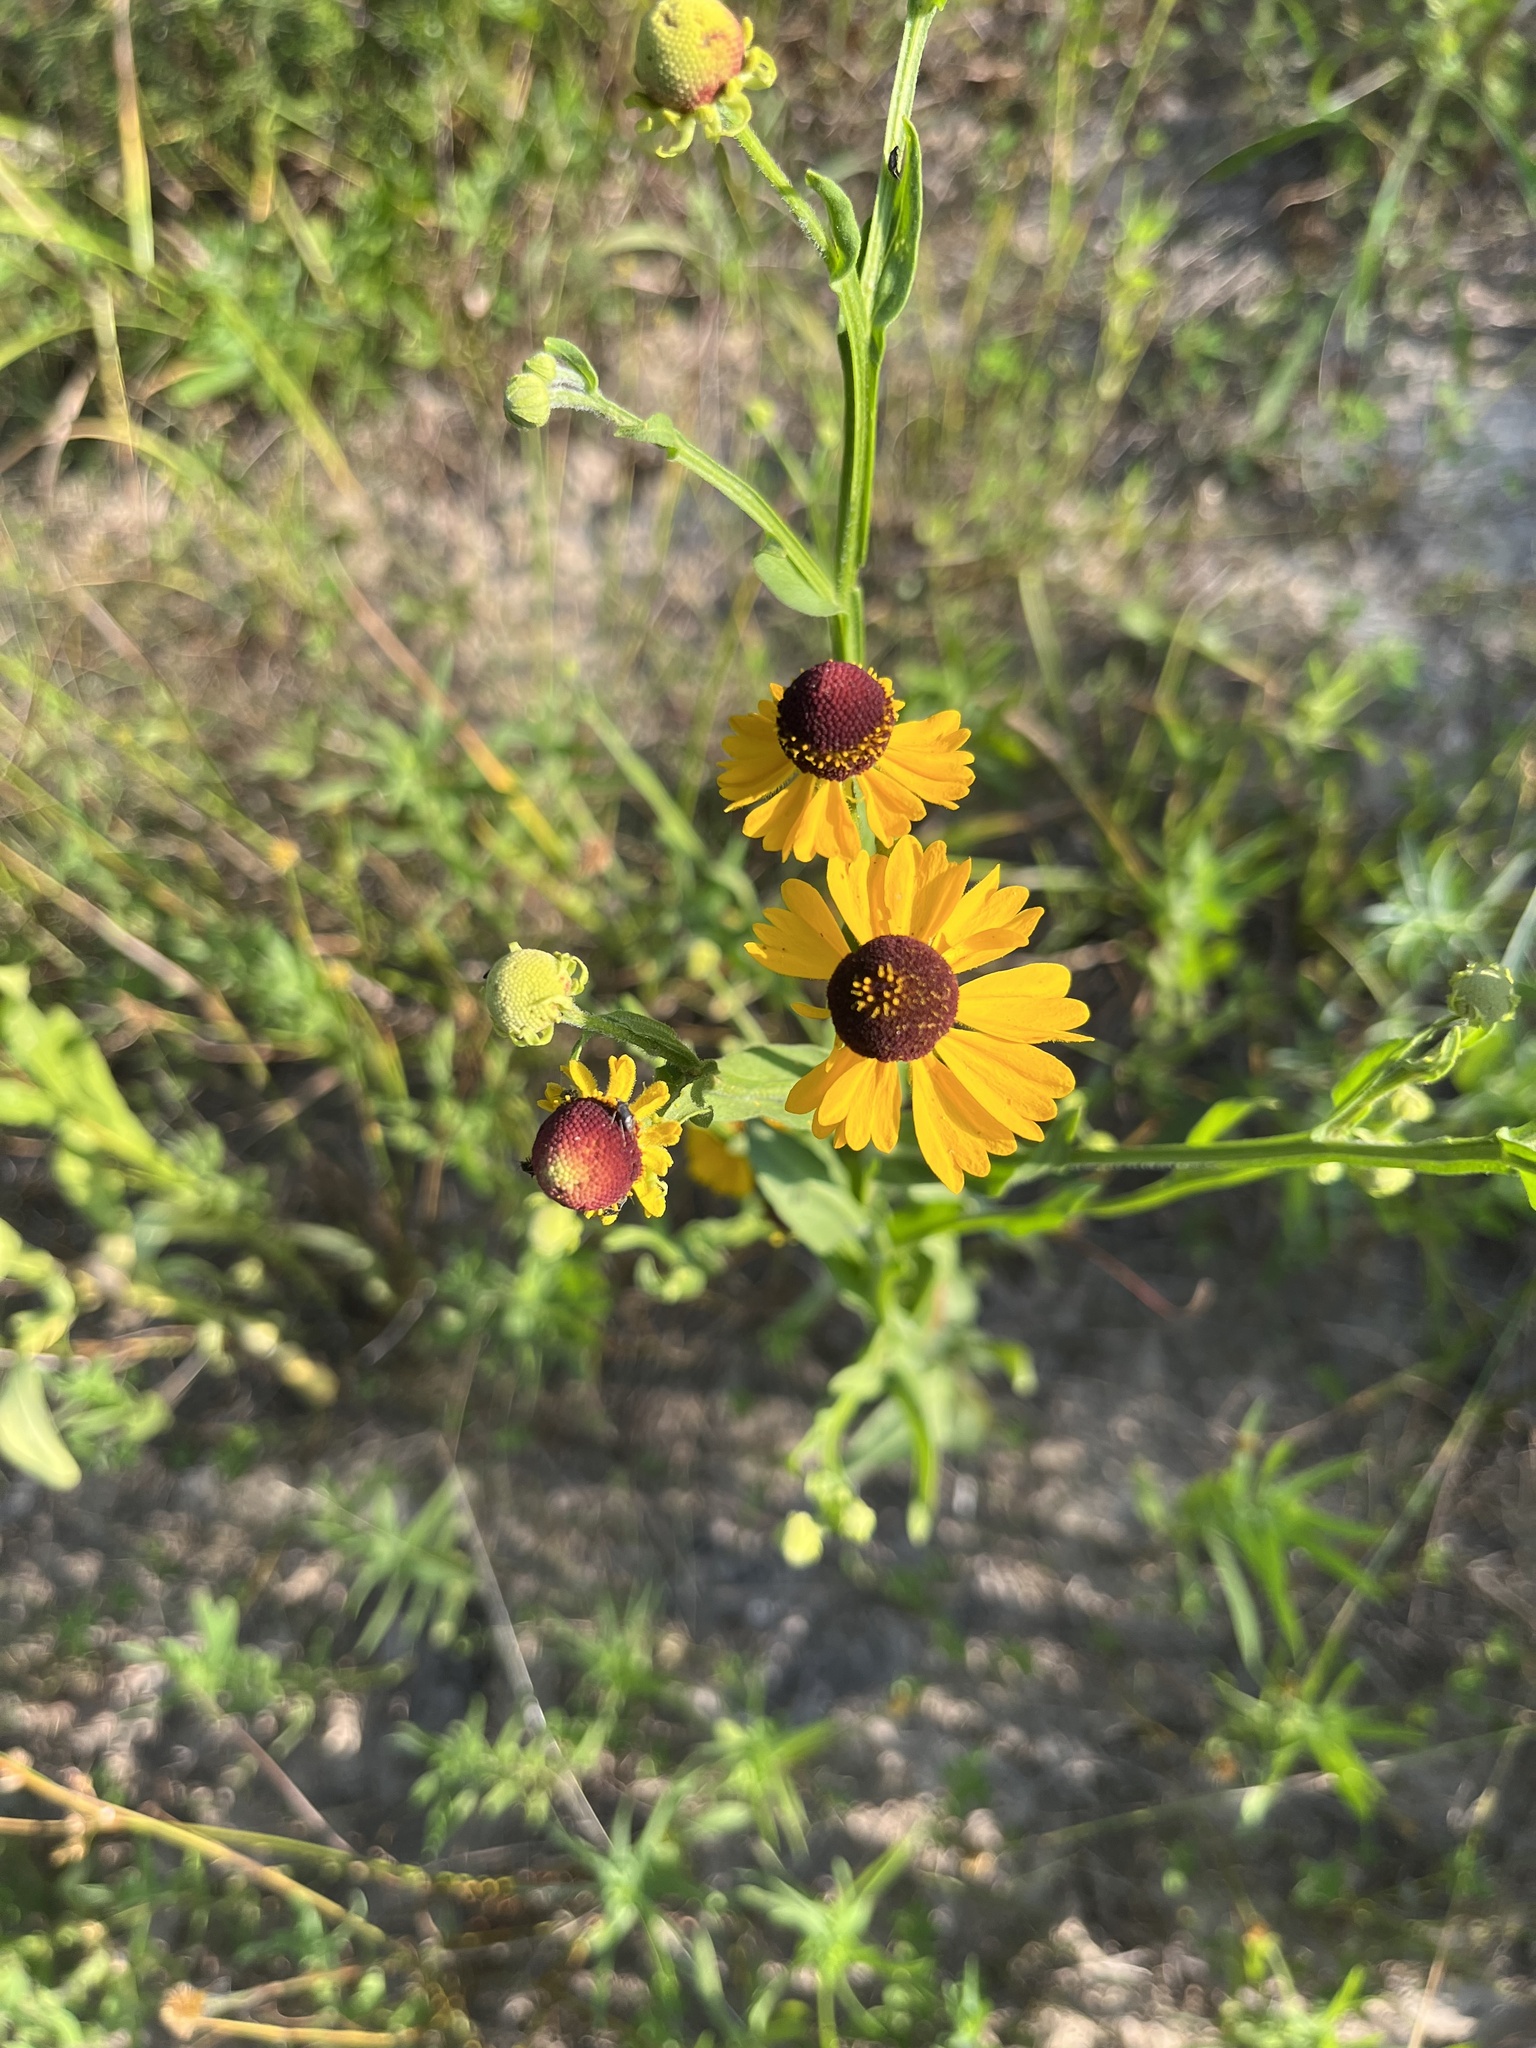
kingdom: Plantae
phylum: Tracheophyta
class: Magnoliopsida
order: Asterales
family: Asteraceae
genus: Helenium
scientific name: Helenium flexuosum
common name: Naked-flowered sneezeweed
